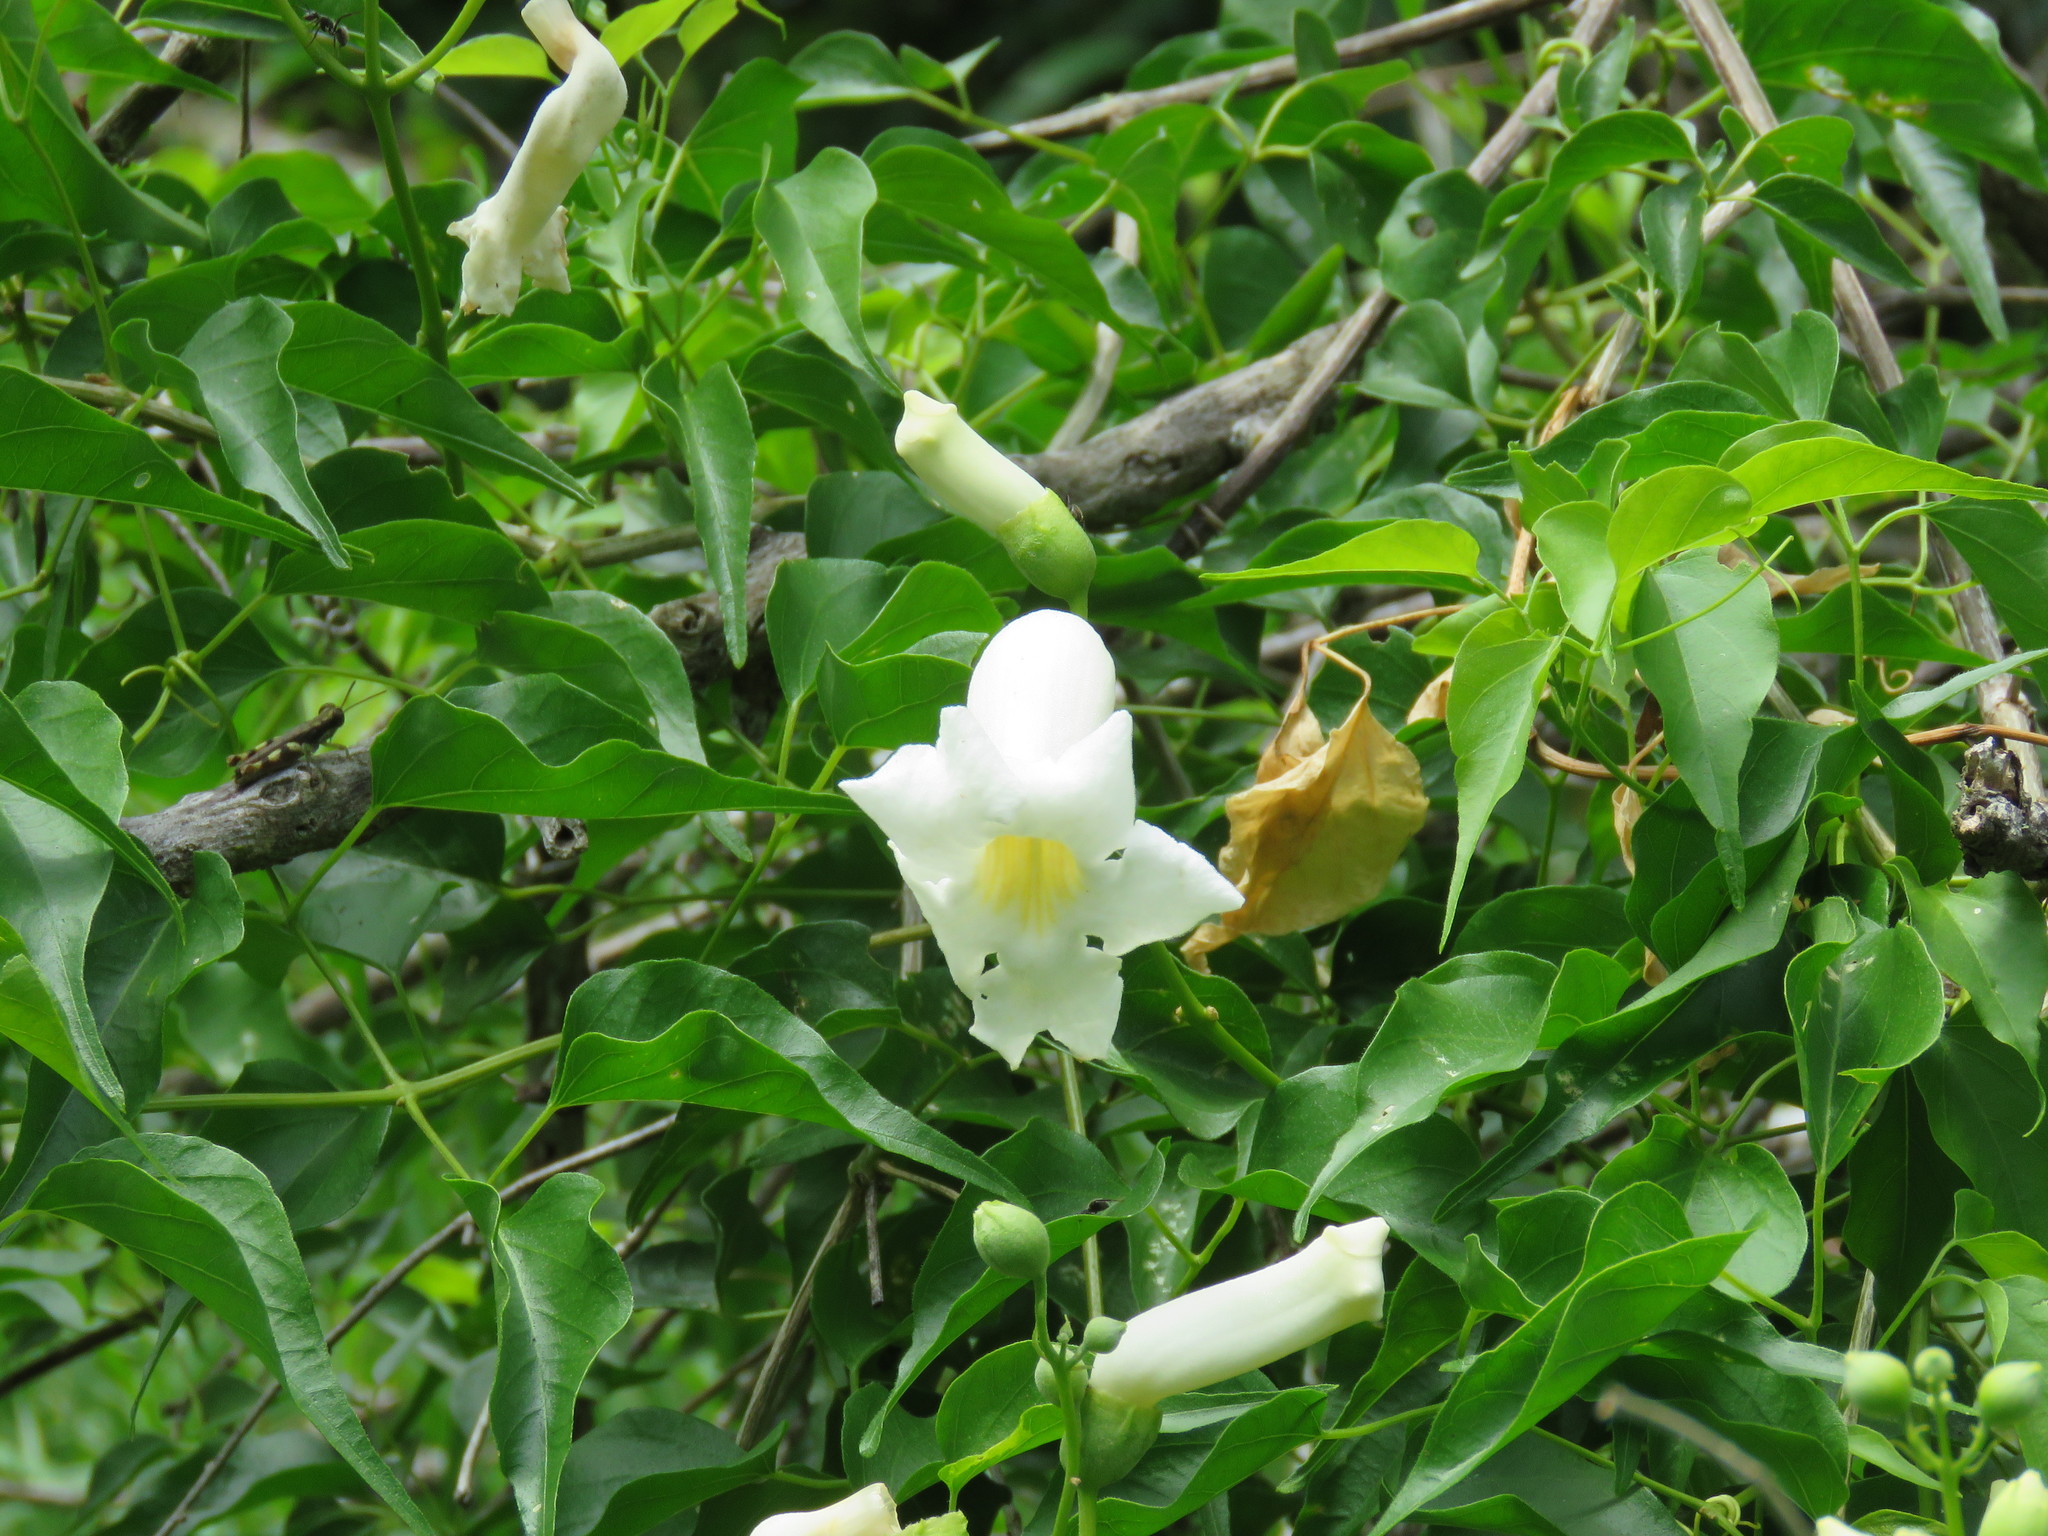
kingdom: Plantae
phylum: Tracheophyta
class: Magnoliopsida
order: Lamiales
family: Bignoniaceae
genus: Amphilophium
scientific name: Amphilophium carolinae
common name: Monkey's-comb
